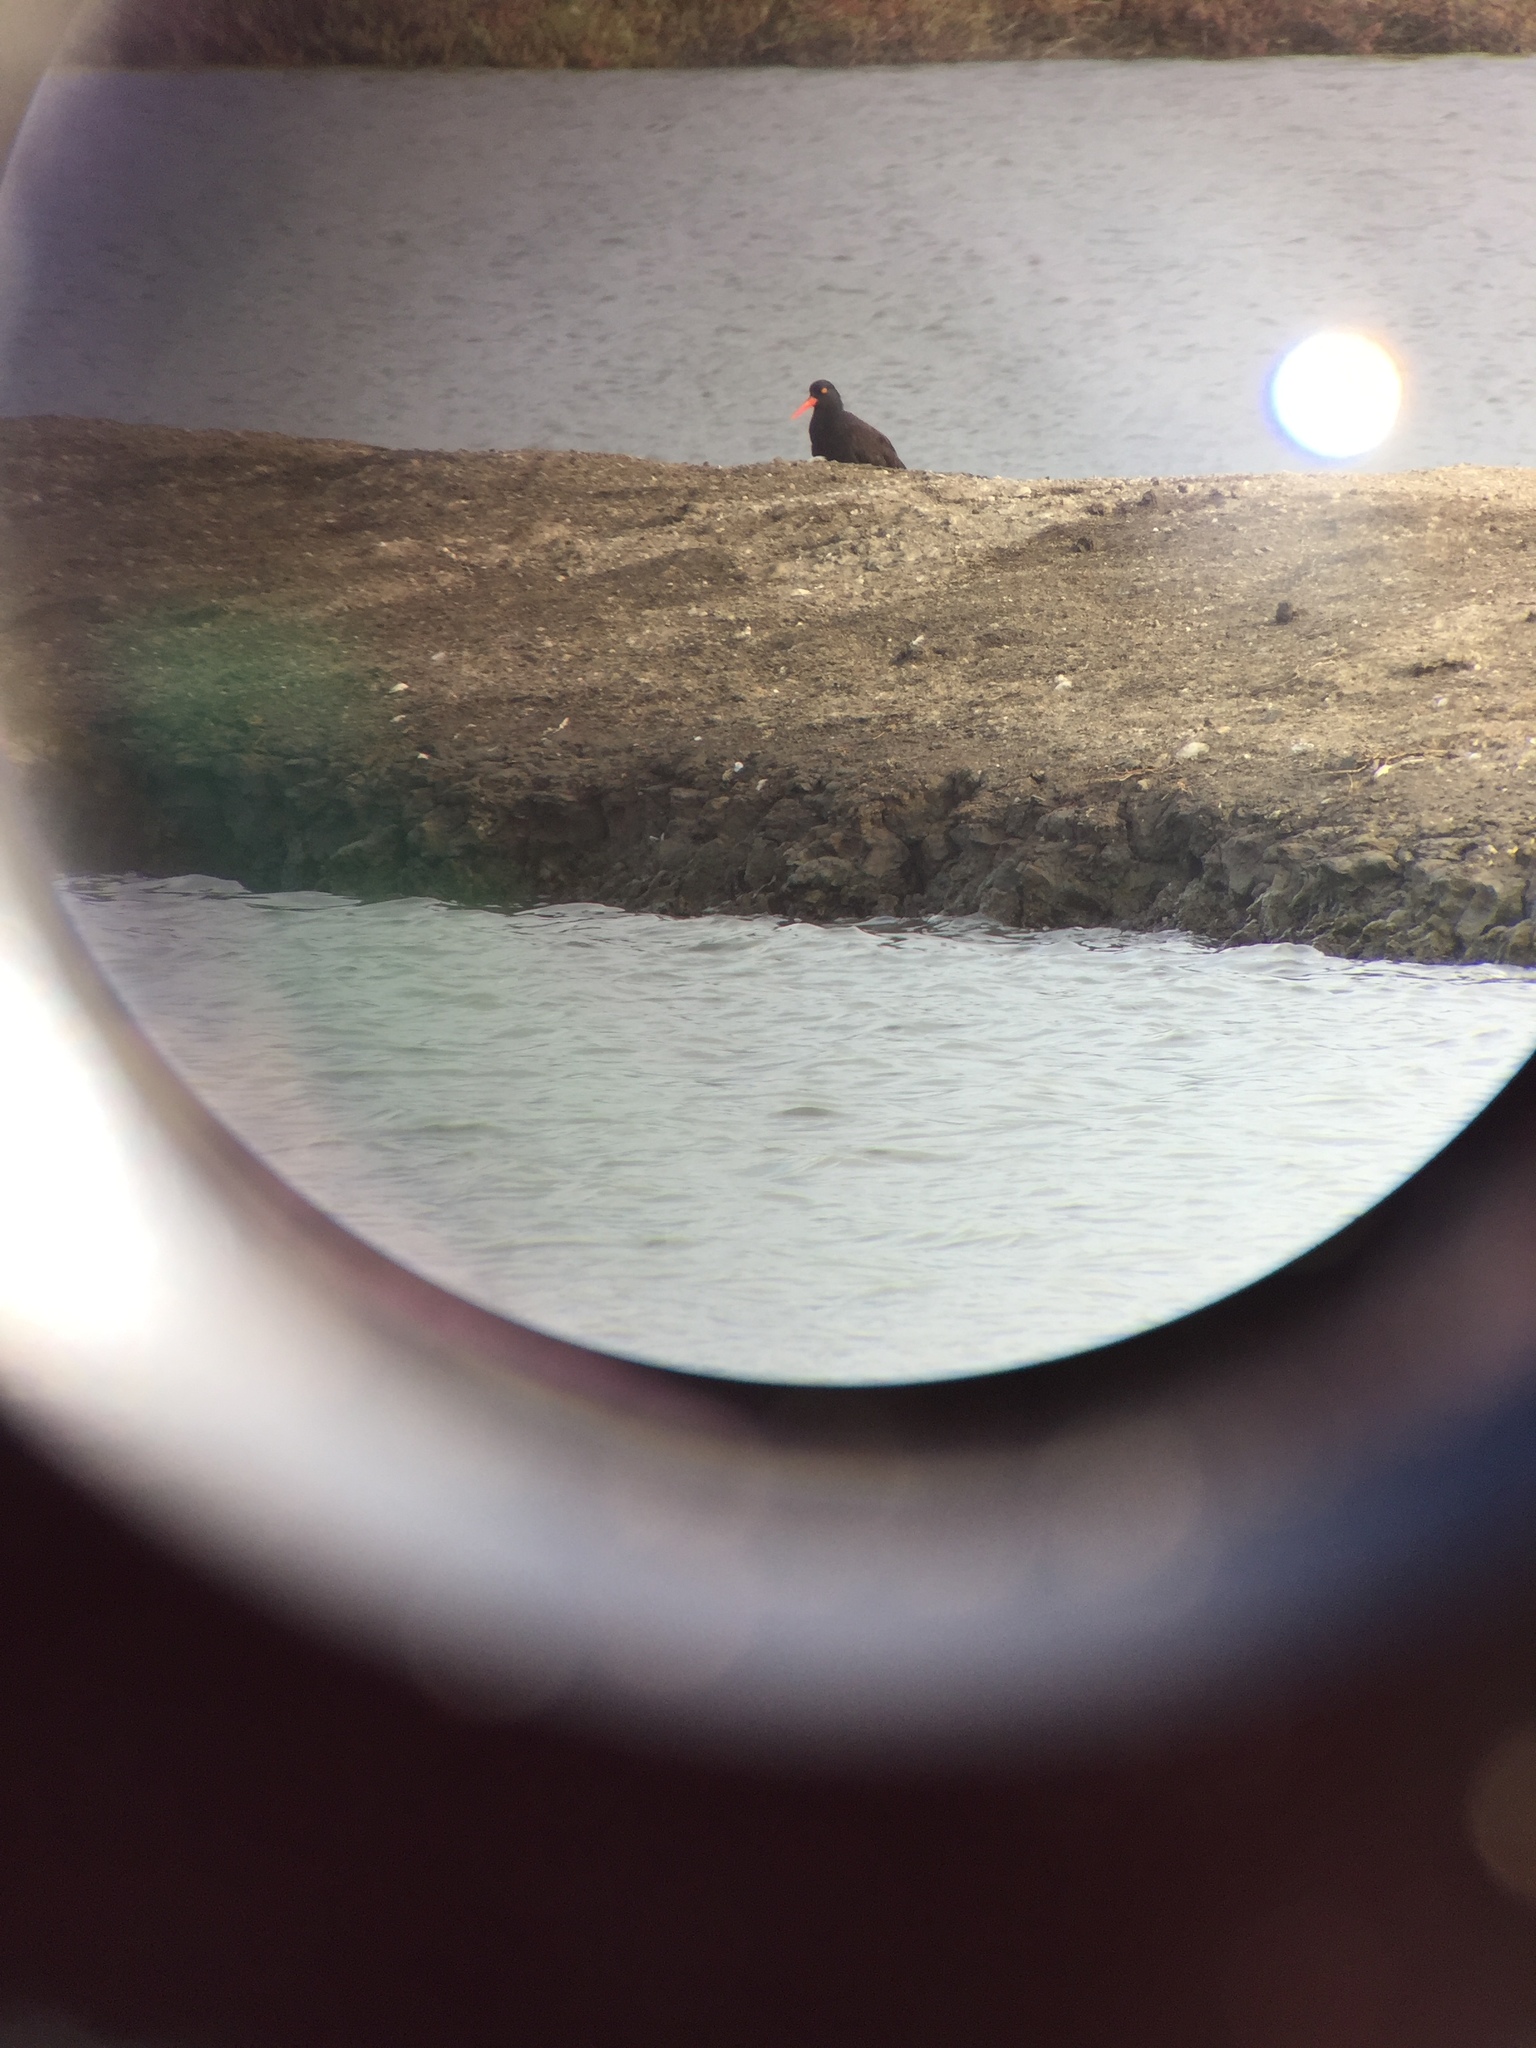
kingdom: Animalia
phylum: Chordata
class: Aves
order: Charadriiformes
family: Haematopodidae
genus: Haematopus
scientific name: Haematopus bachmani
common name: Black oystercatcher
